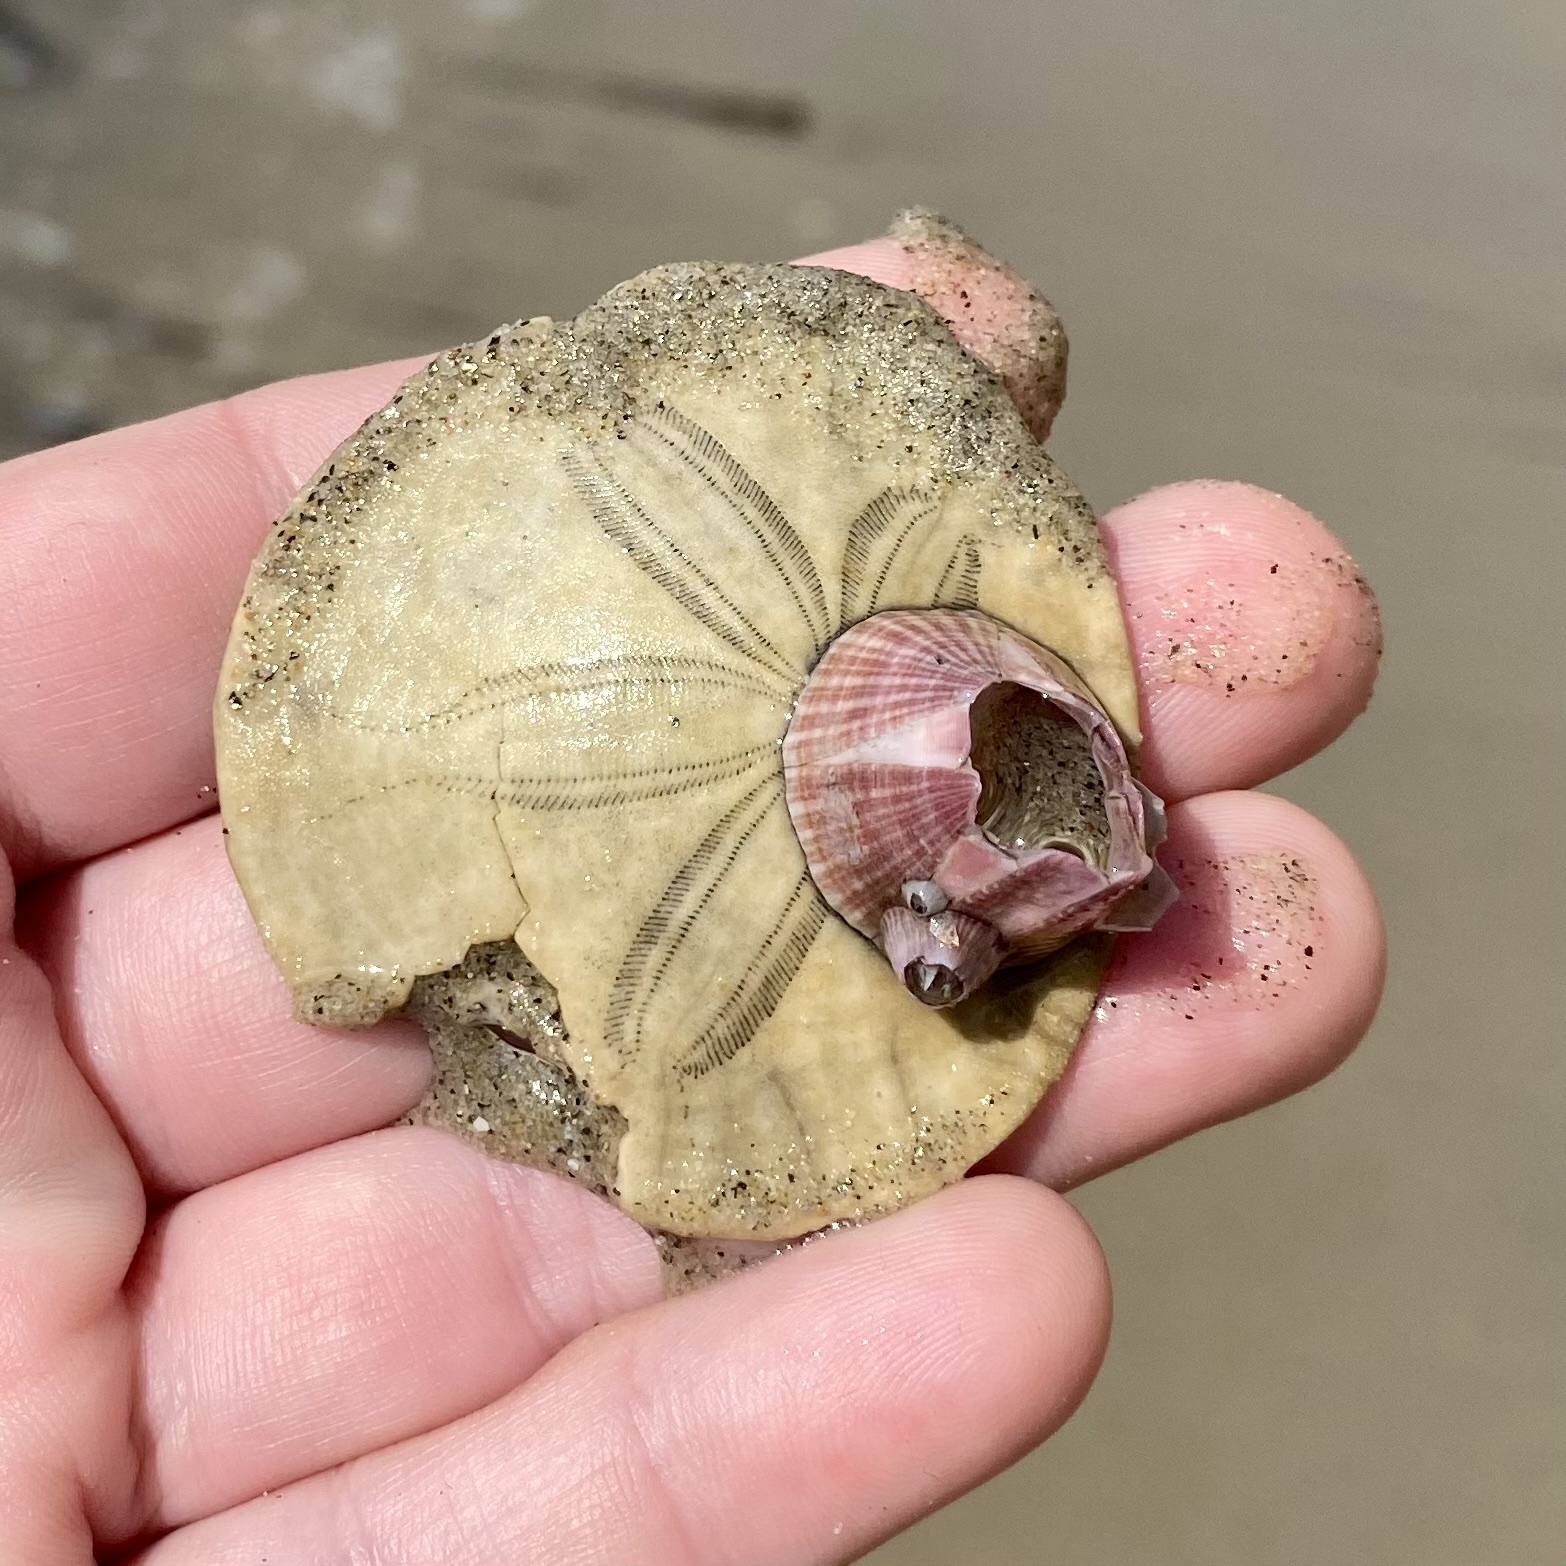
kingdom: Animalia
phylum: Arthropoda
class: Maxillopoda
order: Sessilia
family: Balanidae
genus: Paraconcavus
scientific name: Paraconcavus pacificus
